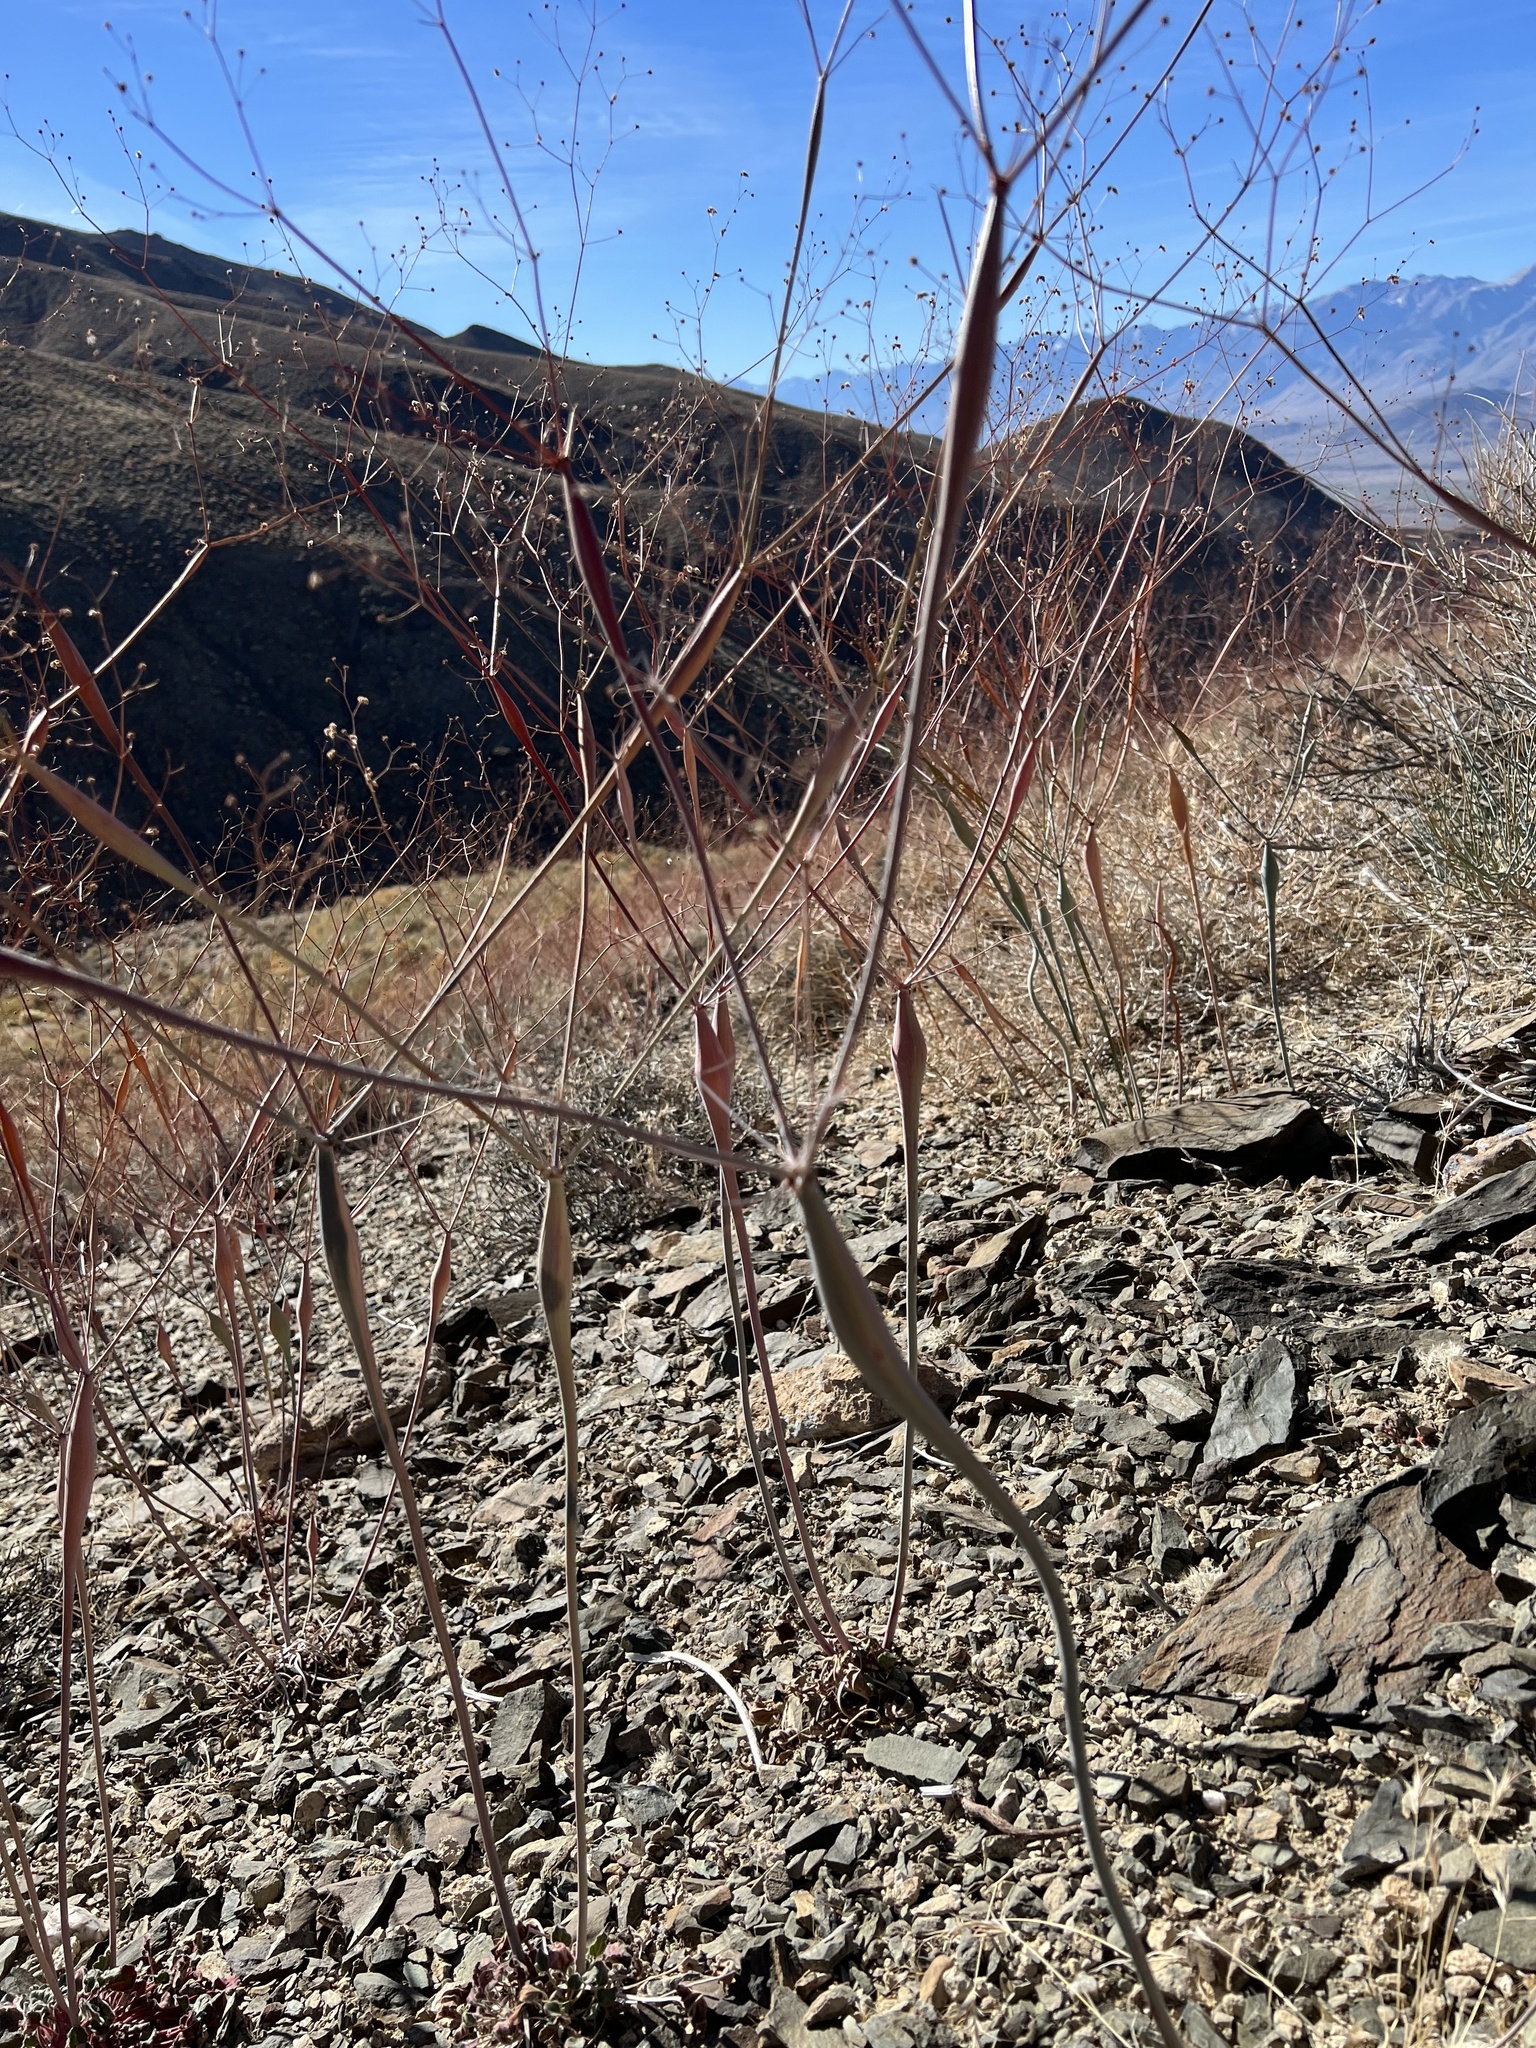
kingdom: Plantae
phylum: Tracheophyta
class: Magnoliopsida
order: Caryophyllales
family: Polygonaceae
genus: Eriogonum
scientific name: Eriogonum inflatum
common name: Desert trumpet
